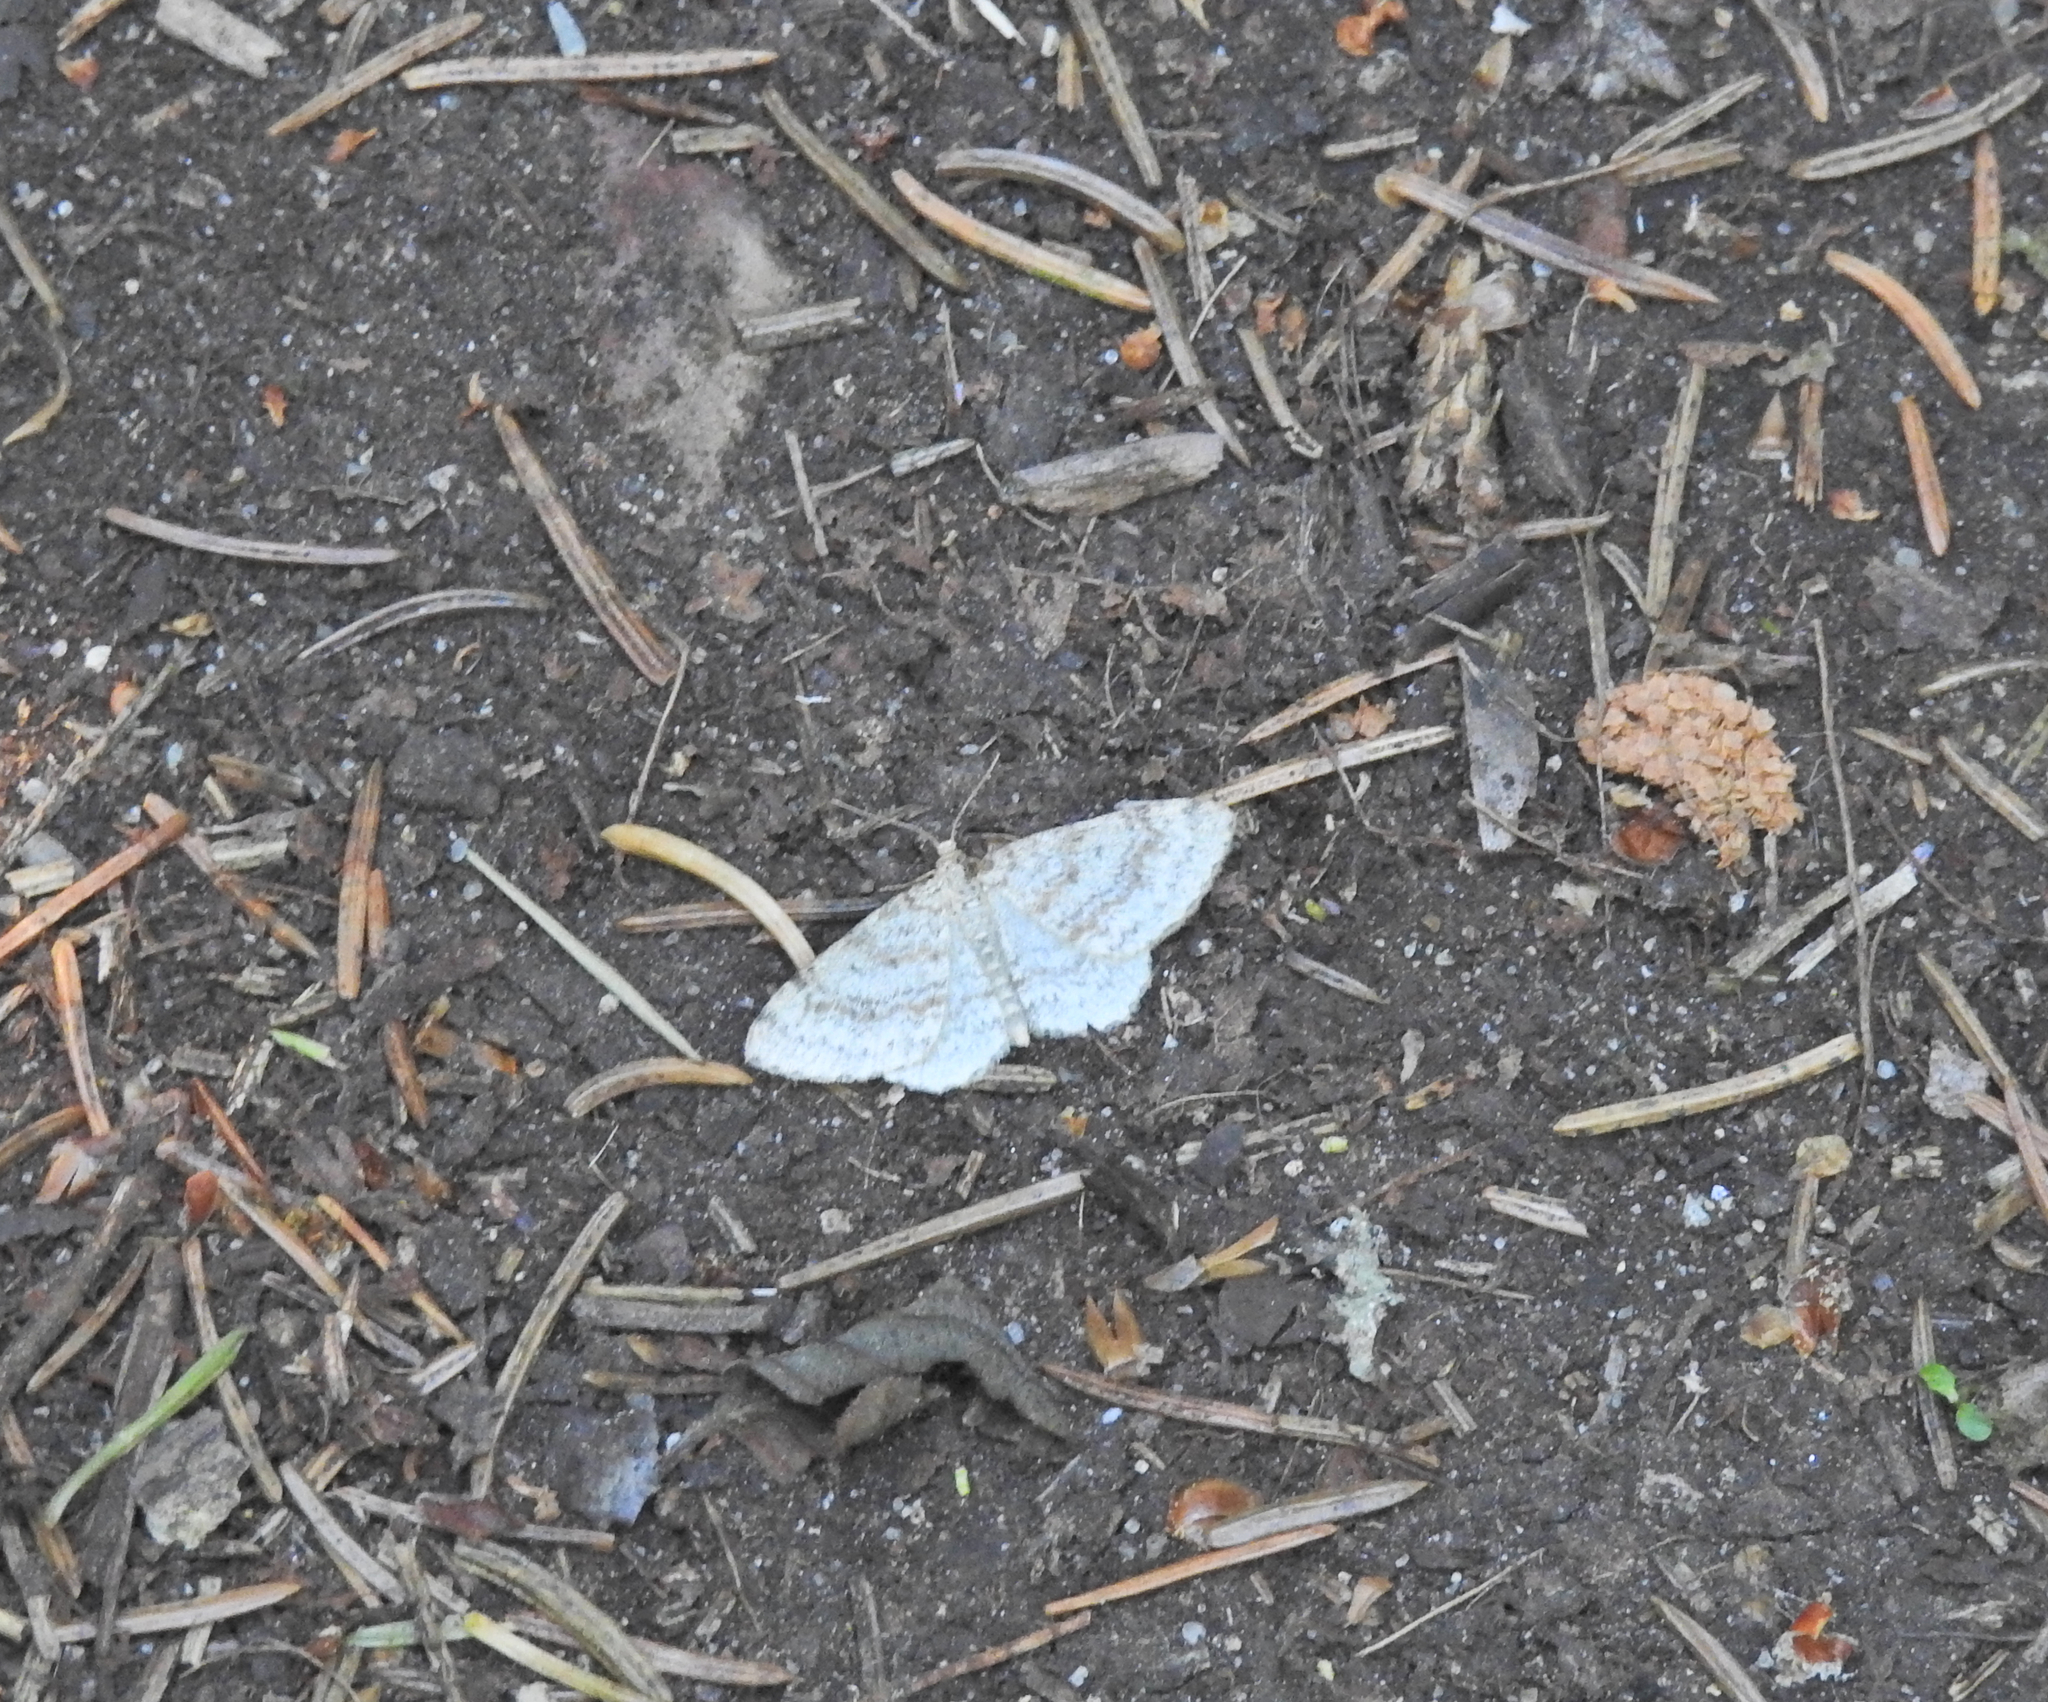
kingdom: Animalia
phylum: Arthropoda
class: Insecta
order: Lepidoptera
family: Geometridae
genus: Hydrelia
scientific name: Hydrelia sylvata
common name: Waved carpet
